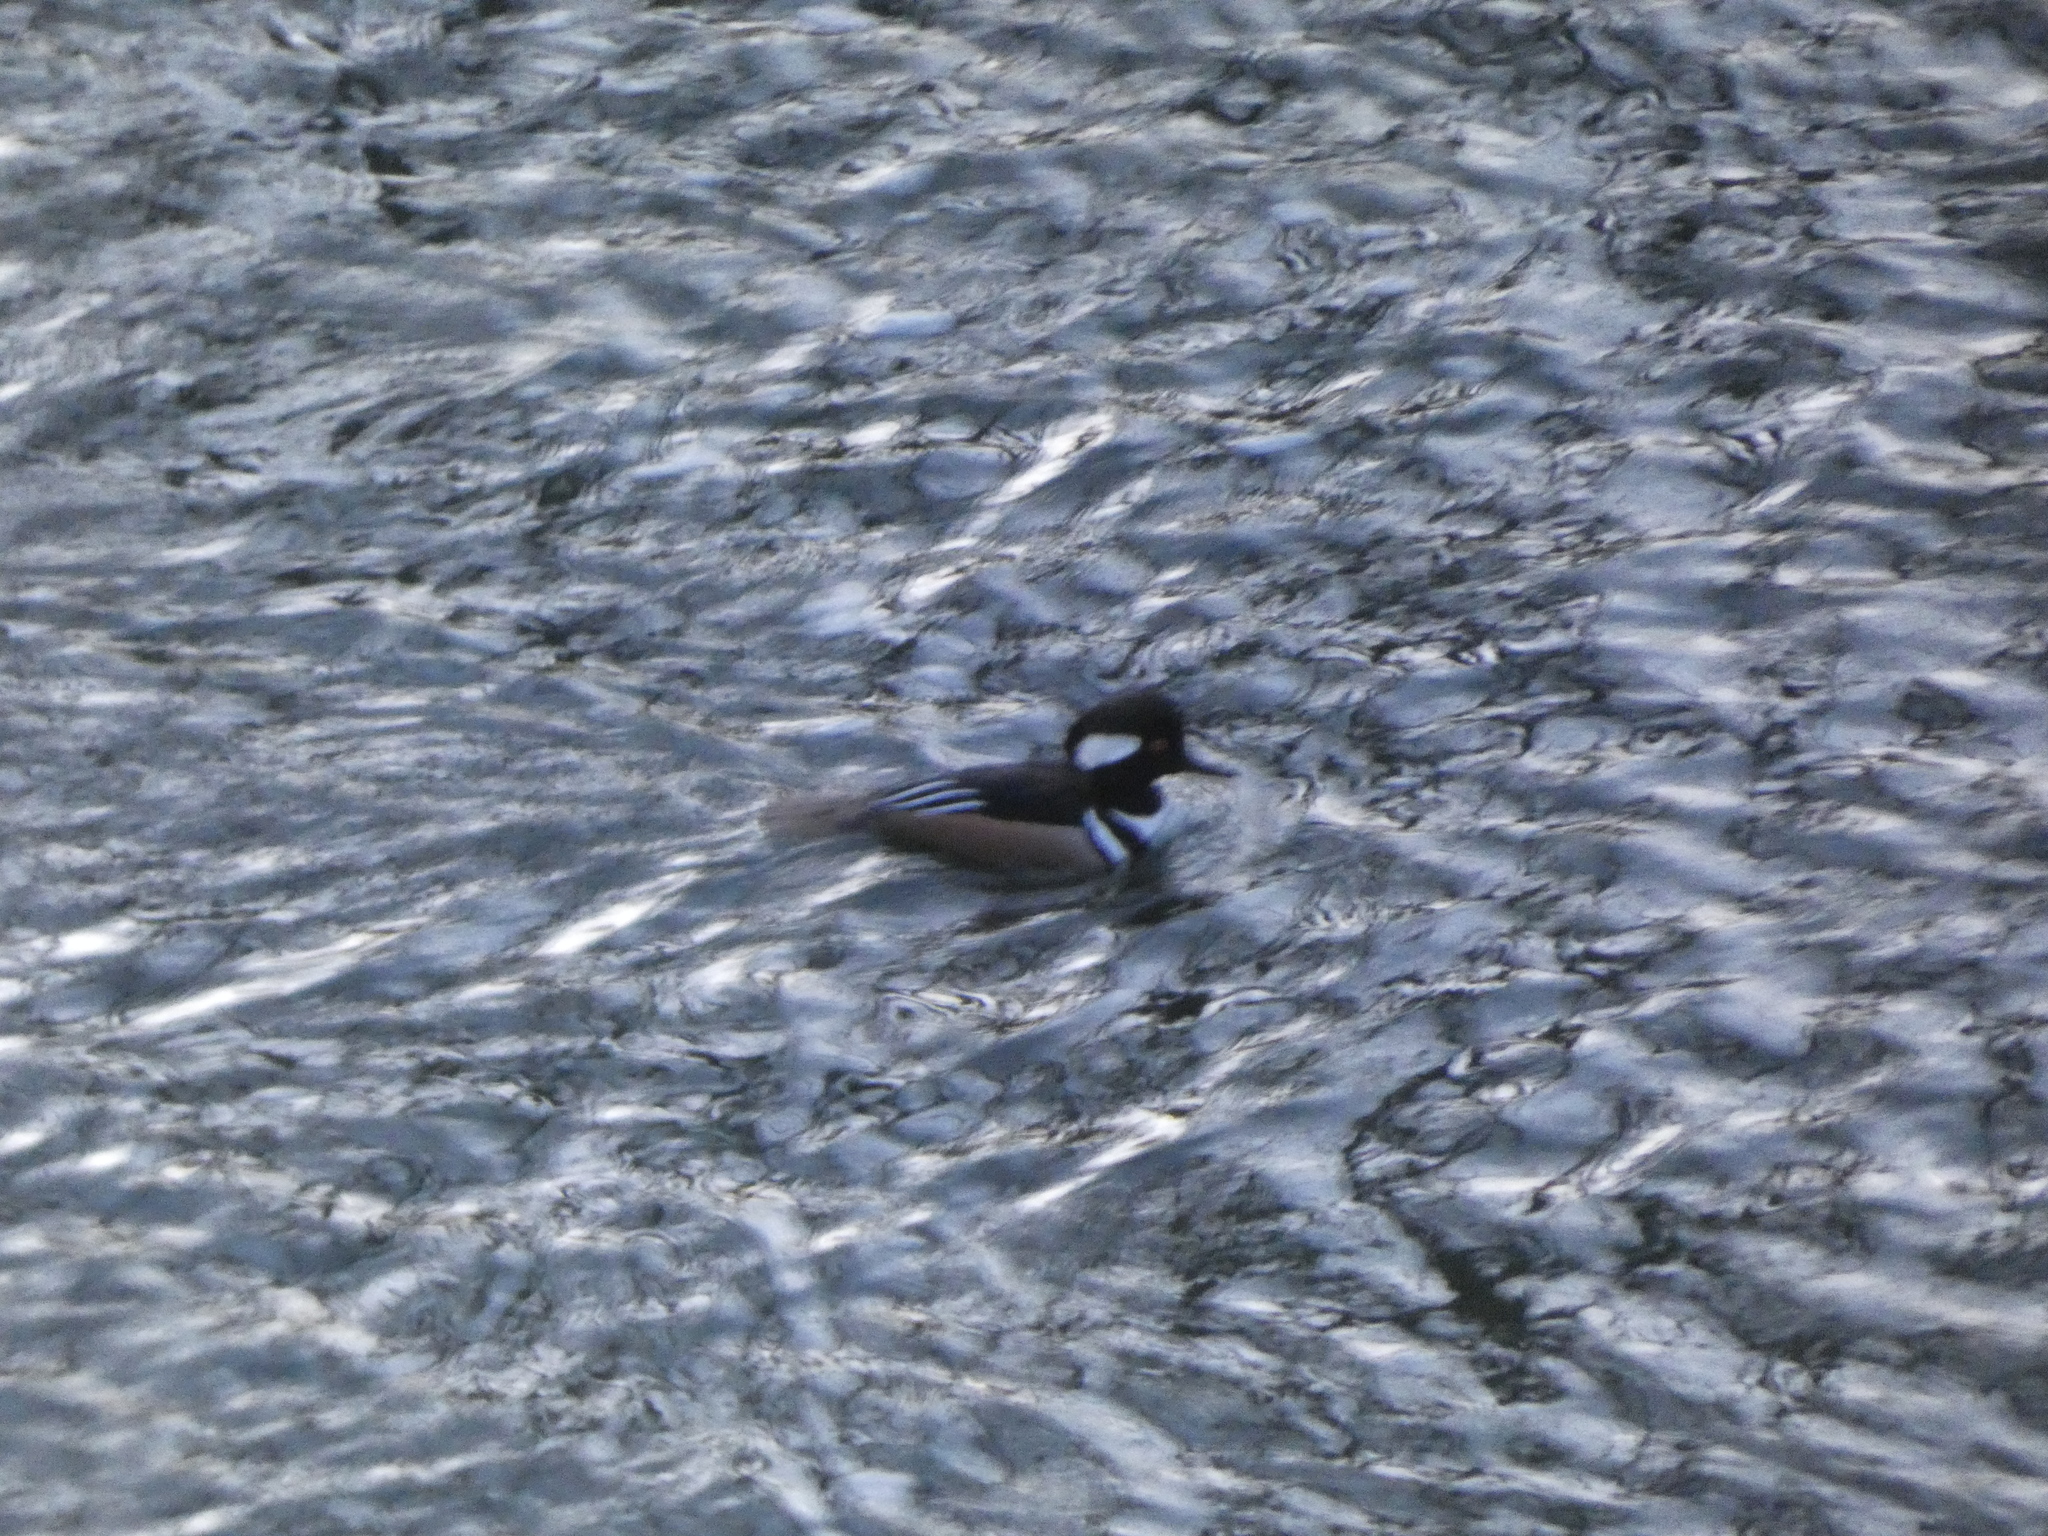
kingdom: Animalia
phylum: Chordata
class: Aves
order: Anseriformes
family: Anatidae
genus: Lophodytes
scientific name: Lophodytes cucullatus
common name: Hooded merganser
